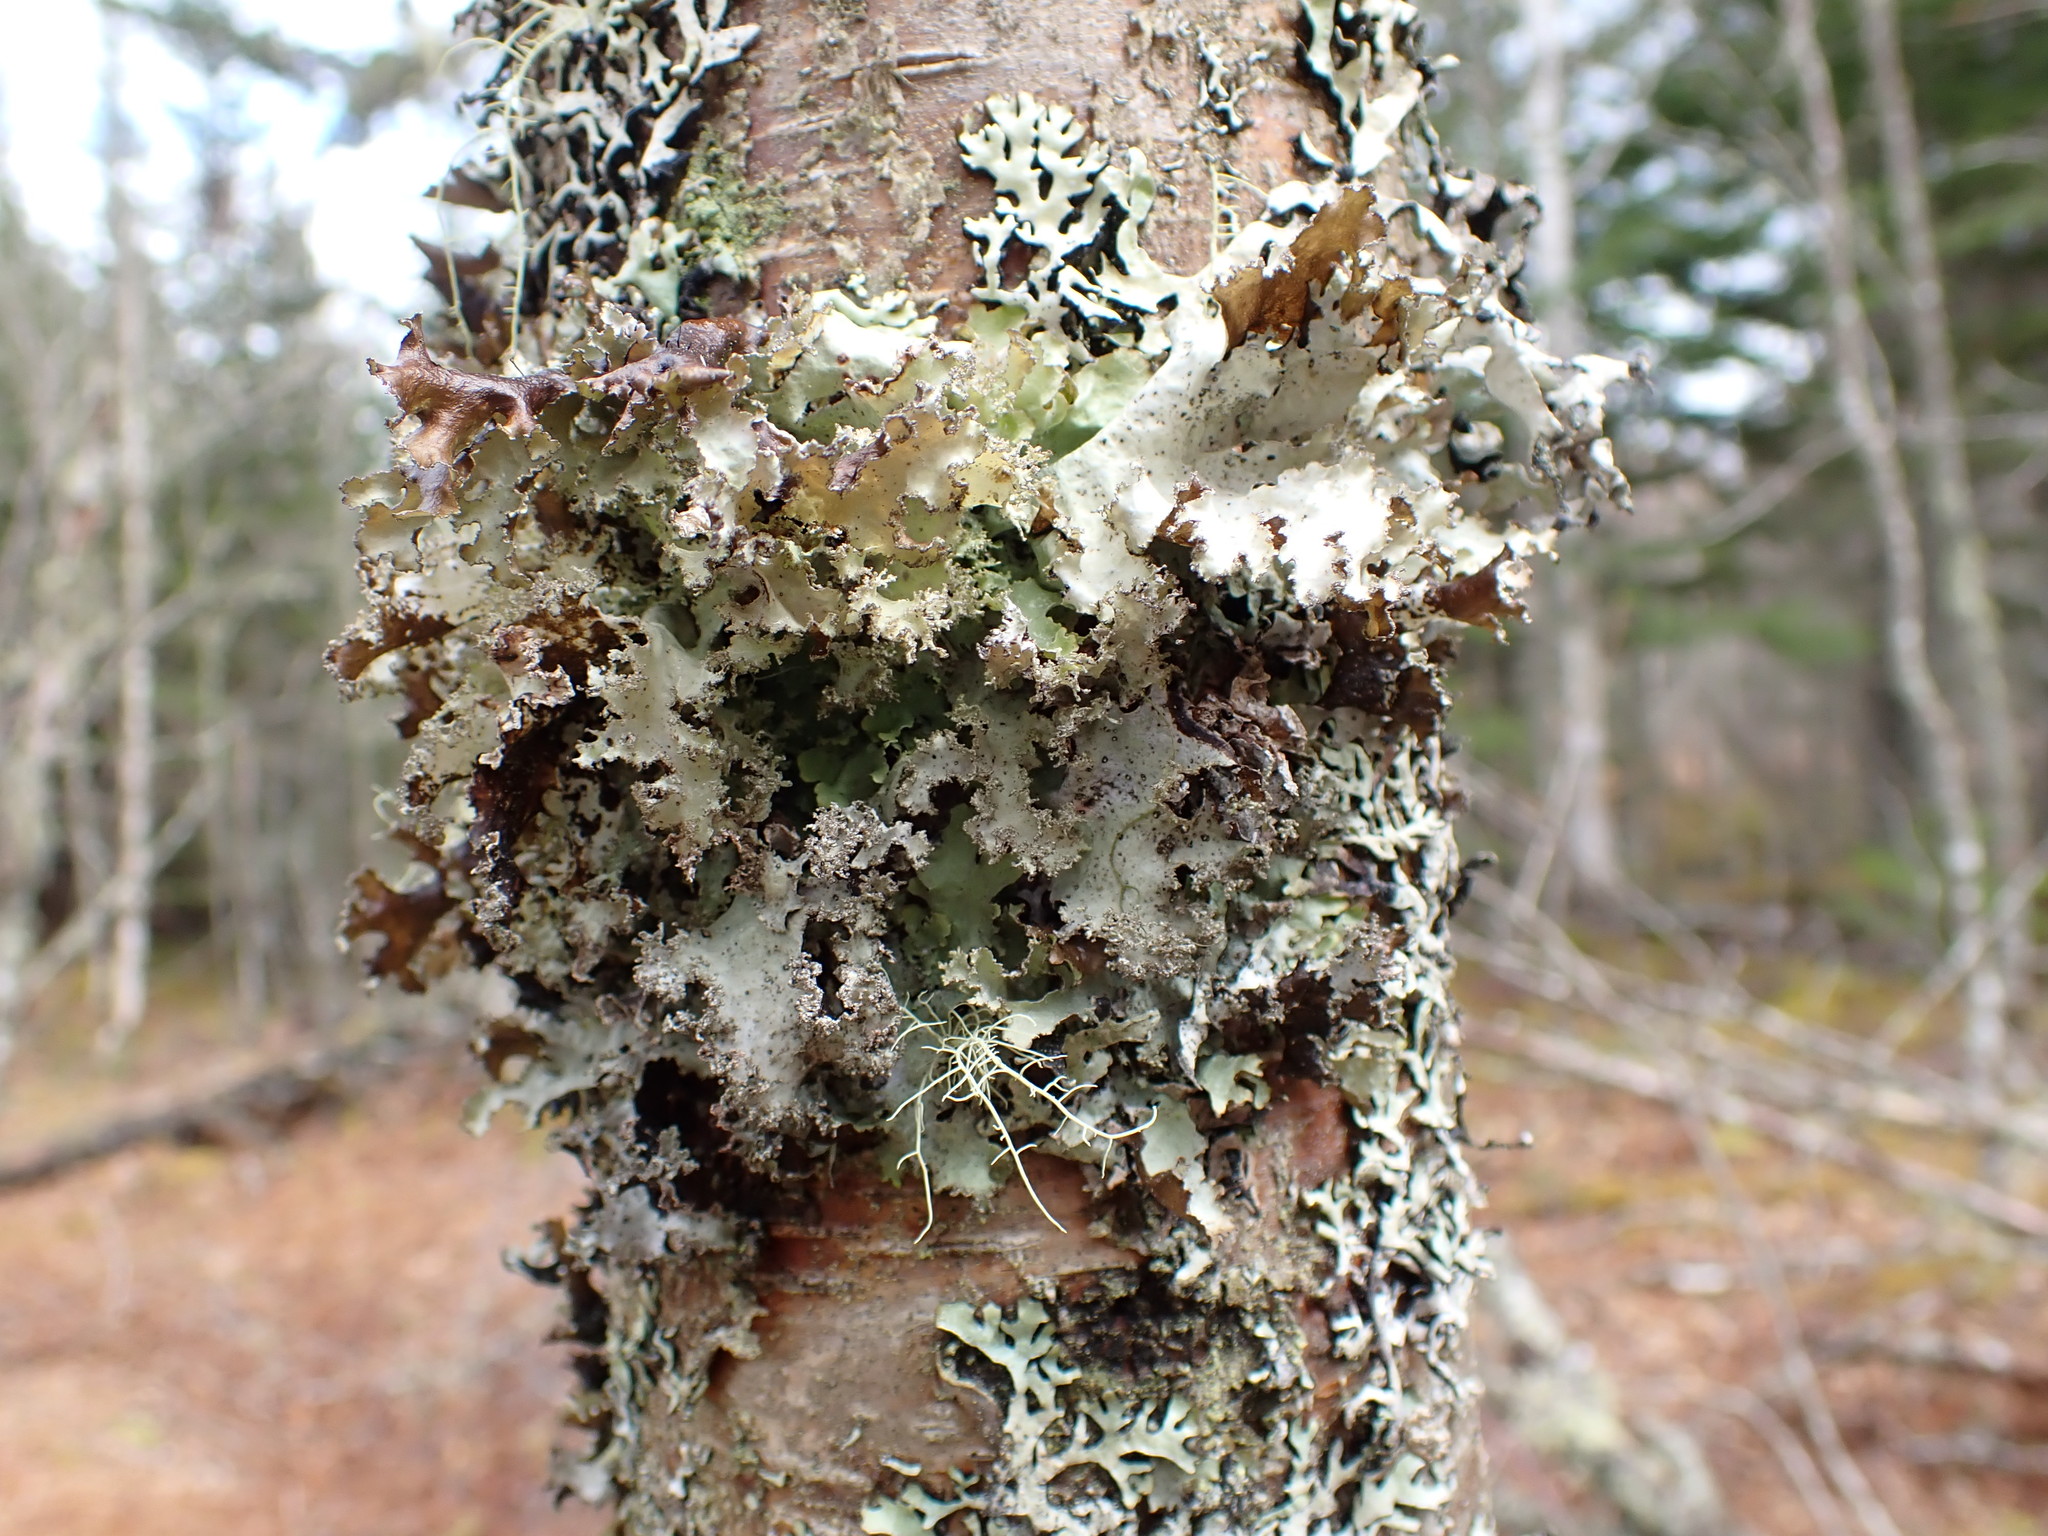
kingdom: Fungi
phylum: Ascomycota
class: Lecanoromycetes
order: Lecanorales
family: Parmeliaceae
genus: Platismatia
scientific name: Platismatia glauca
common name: Varied rag lichen
